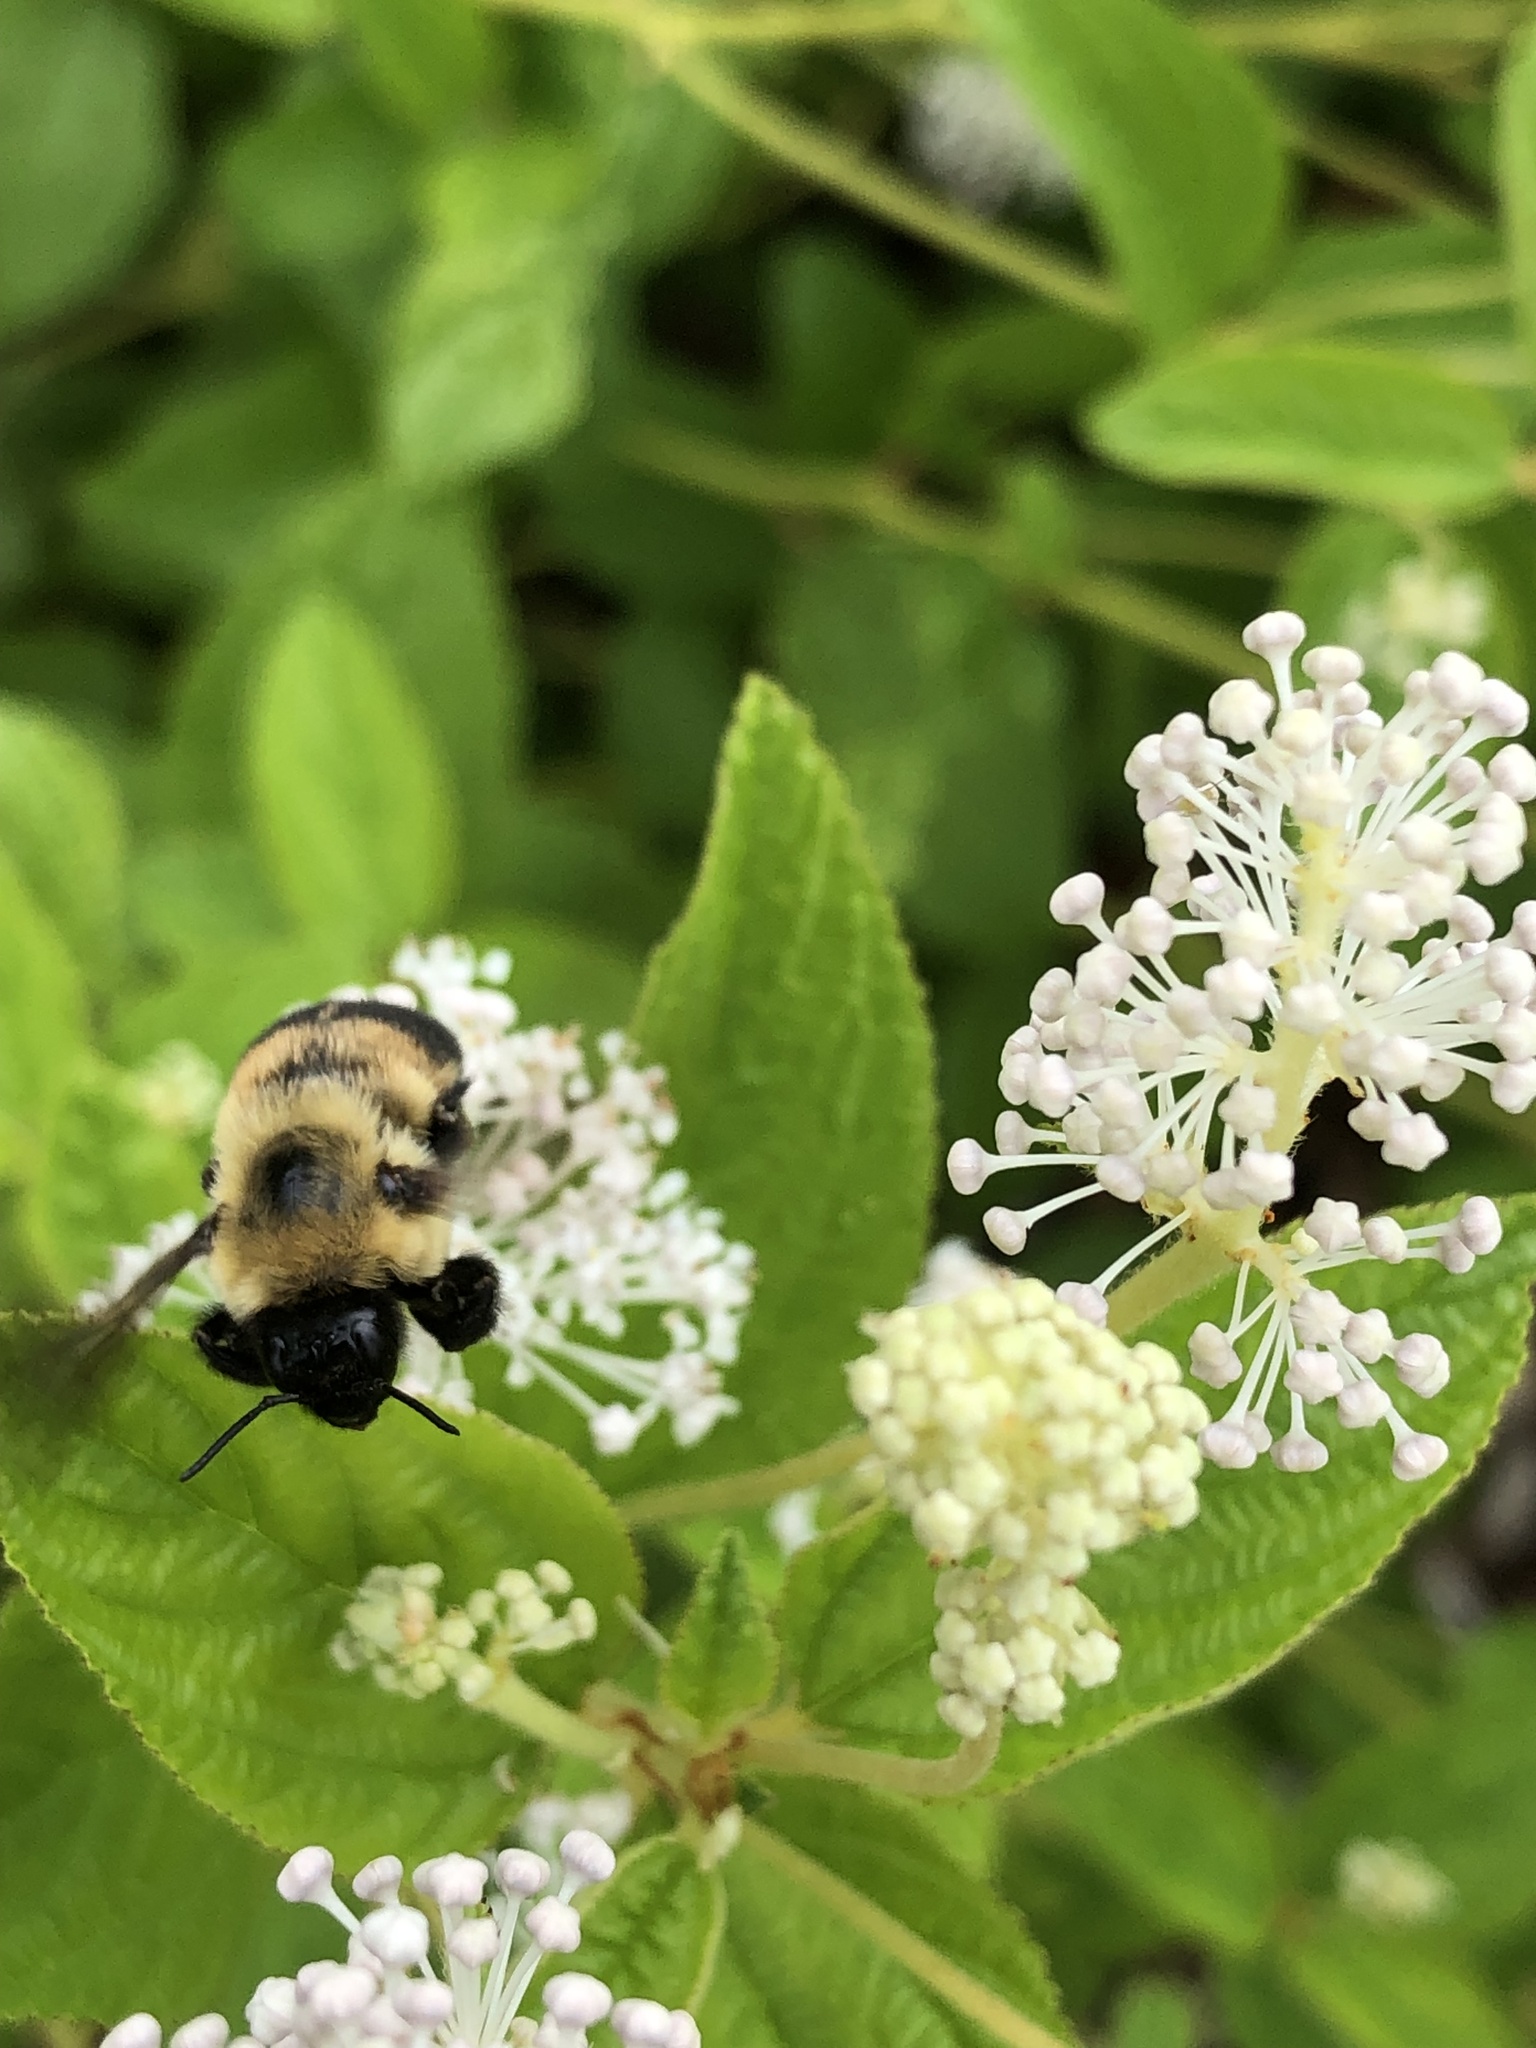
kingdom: Animalia
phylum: Arthropoda
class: Insecta
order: Hymenoptera
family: Apidae
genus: Bombus
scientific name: Bombus griseocollis
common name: Brown-belted bumble bee
